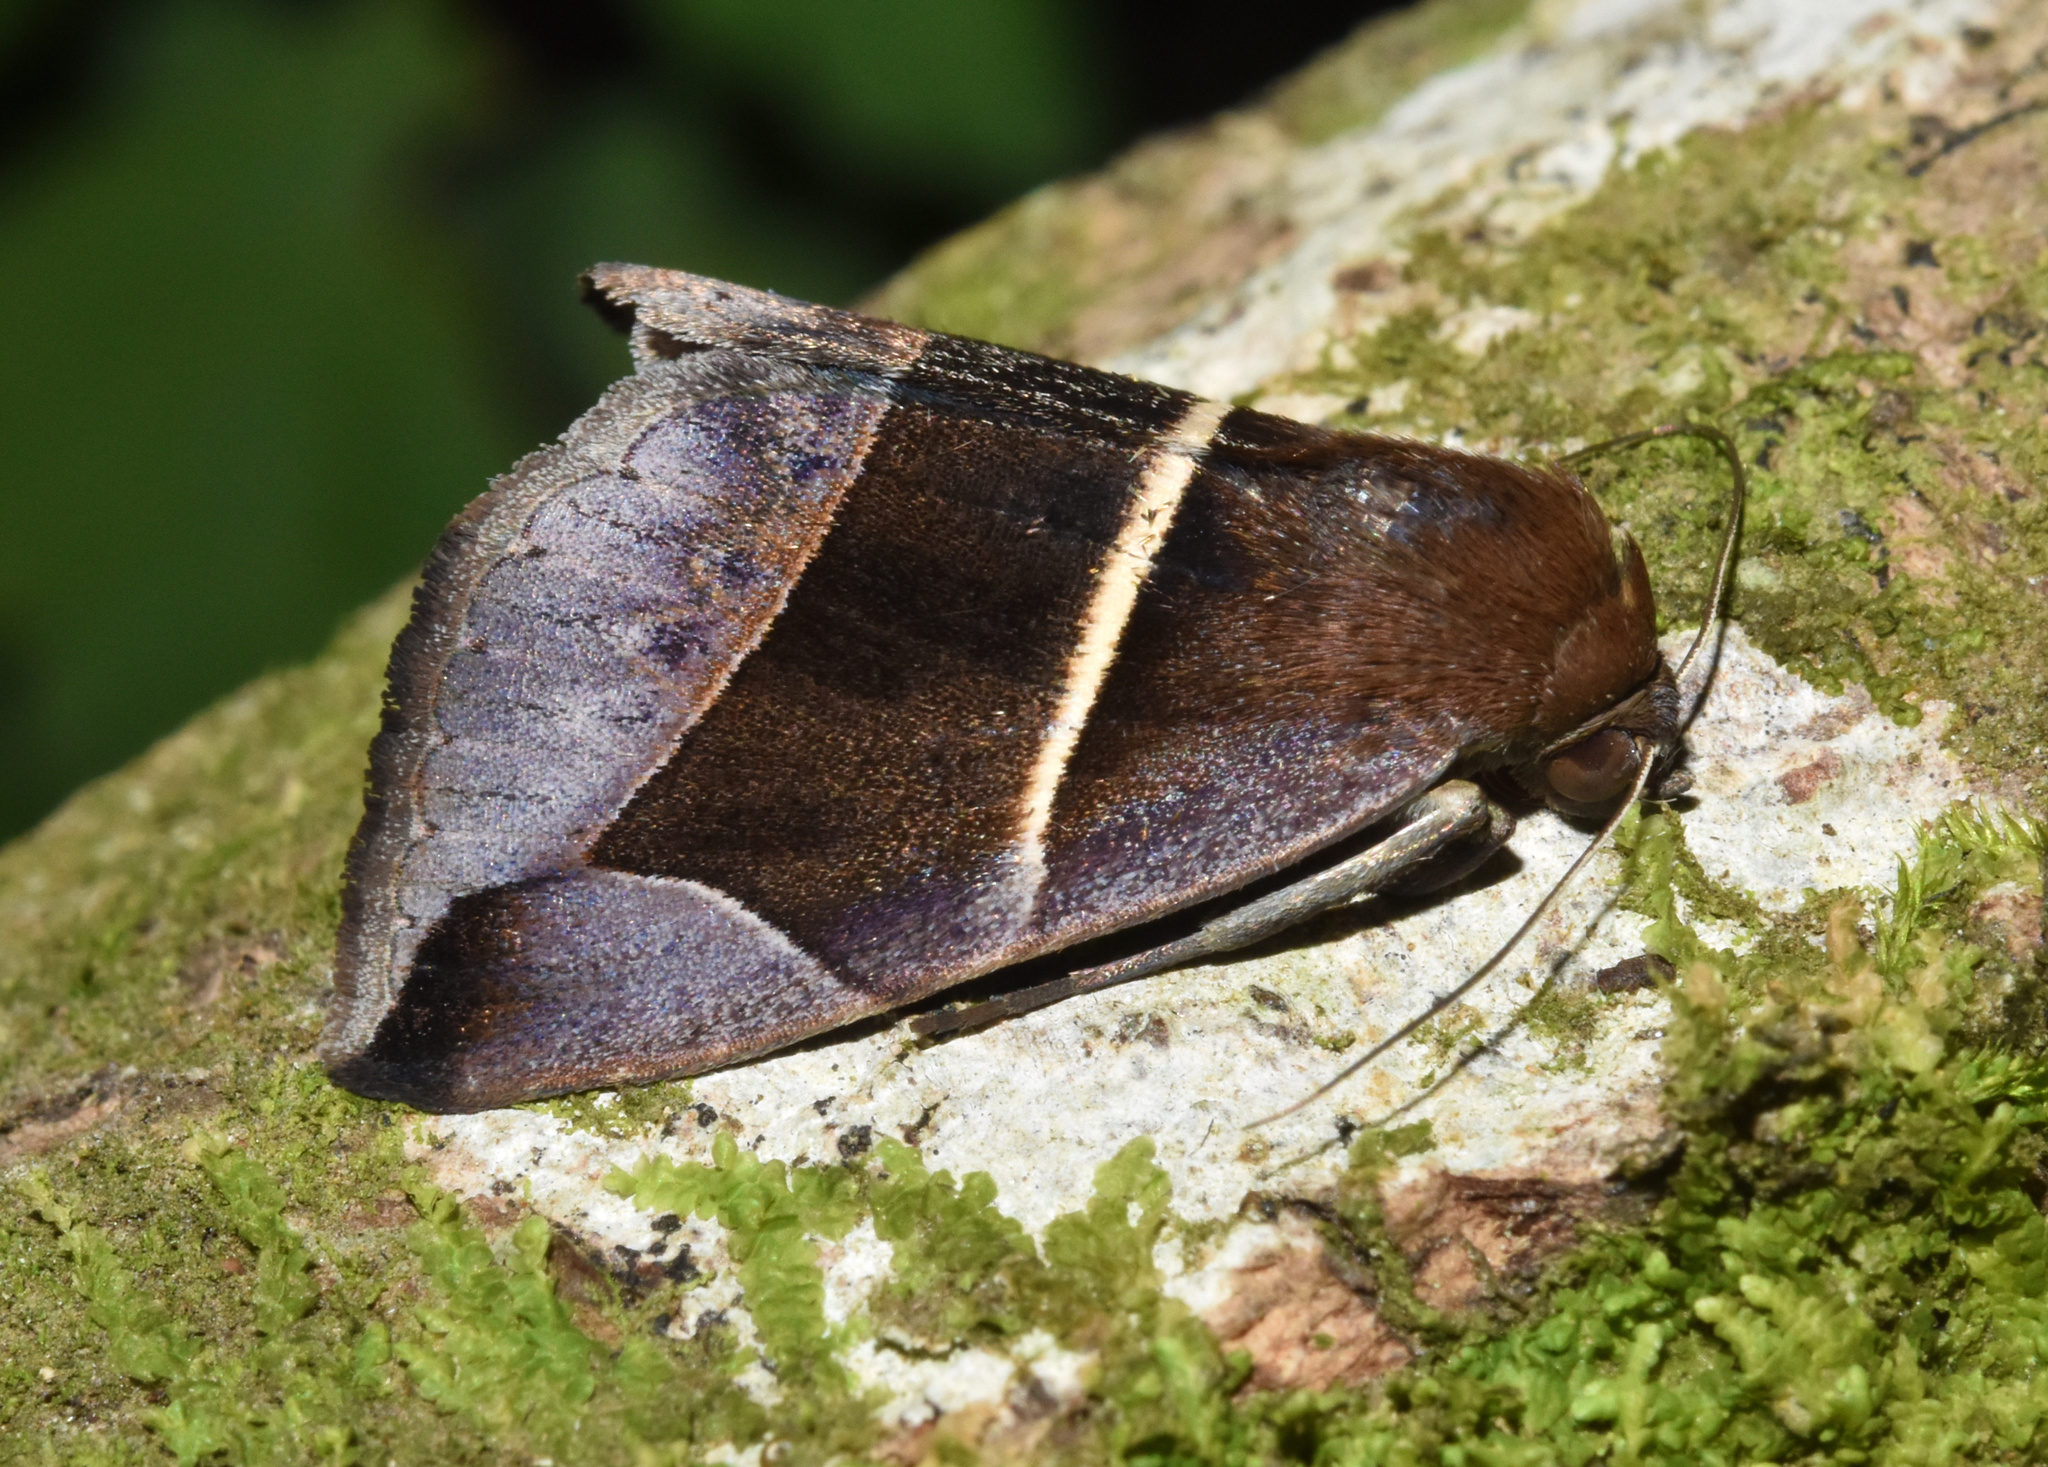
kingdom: Animalia
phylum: Arthropoda
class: Insecta
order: Lepidoptera
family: Erebidae
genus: Chalciope
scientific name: Chalciope erecta
